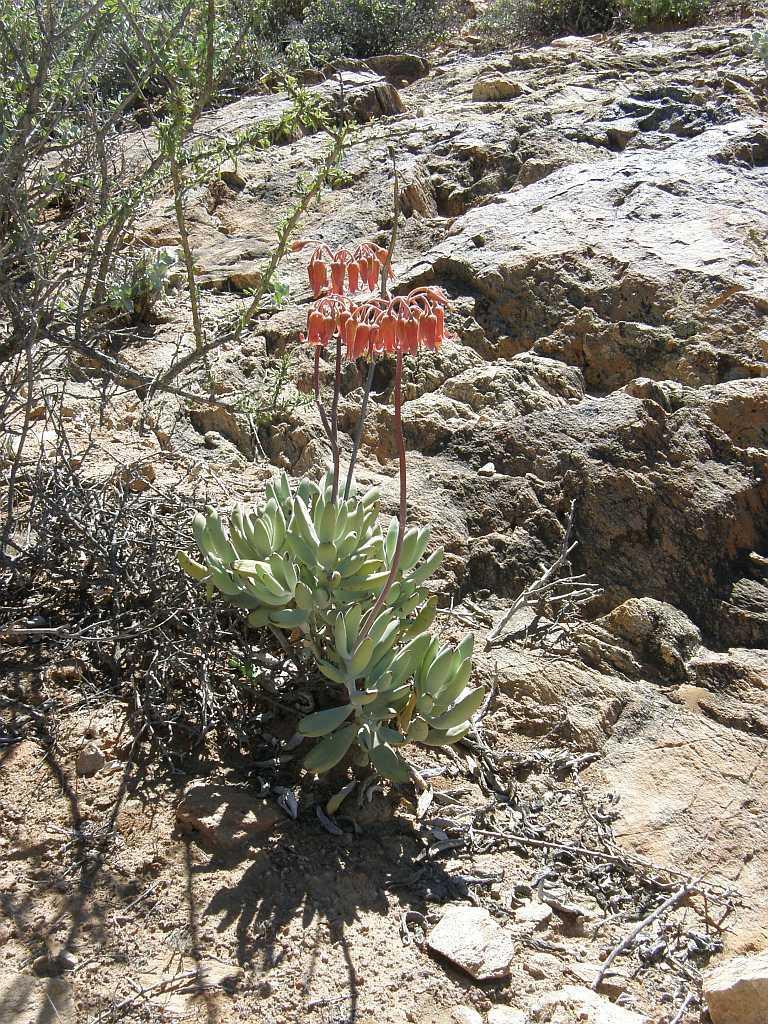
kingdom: Plantae
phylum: Tracheophyta
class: Magnoliopsida
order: Saxifragales
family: Crassulaceae
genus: Cotyledon
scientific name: Cotyledon orbiculata
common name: Pig's ear
